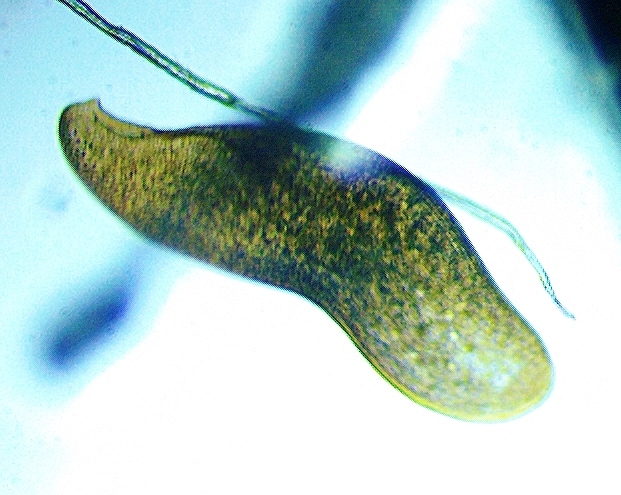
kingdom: Chromista
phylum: Ciliophora
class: Karyorelictea
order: Loxodida
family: Loxodidae
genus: Loxodes
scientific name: Loxodes kahli
